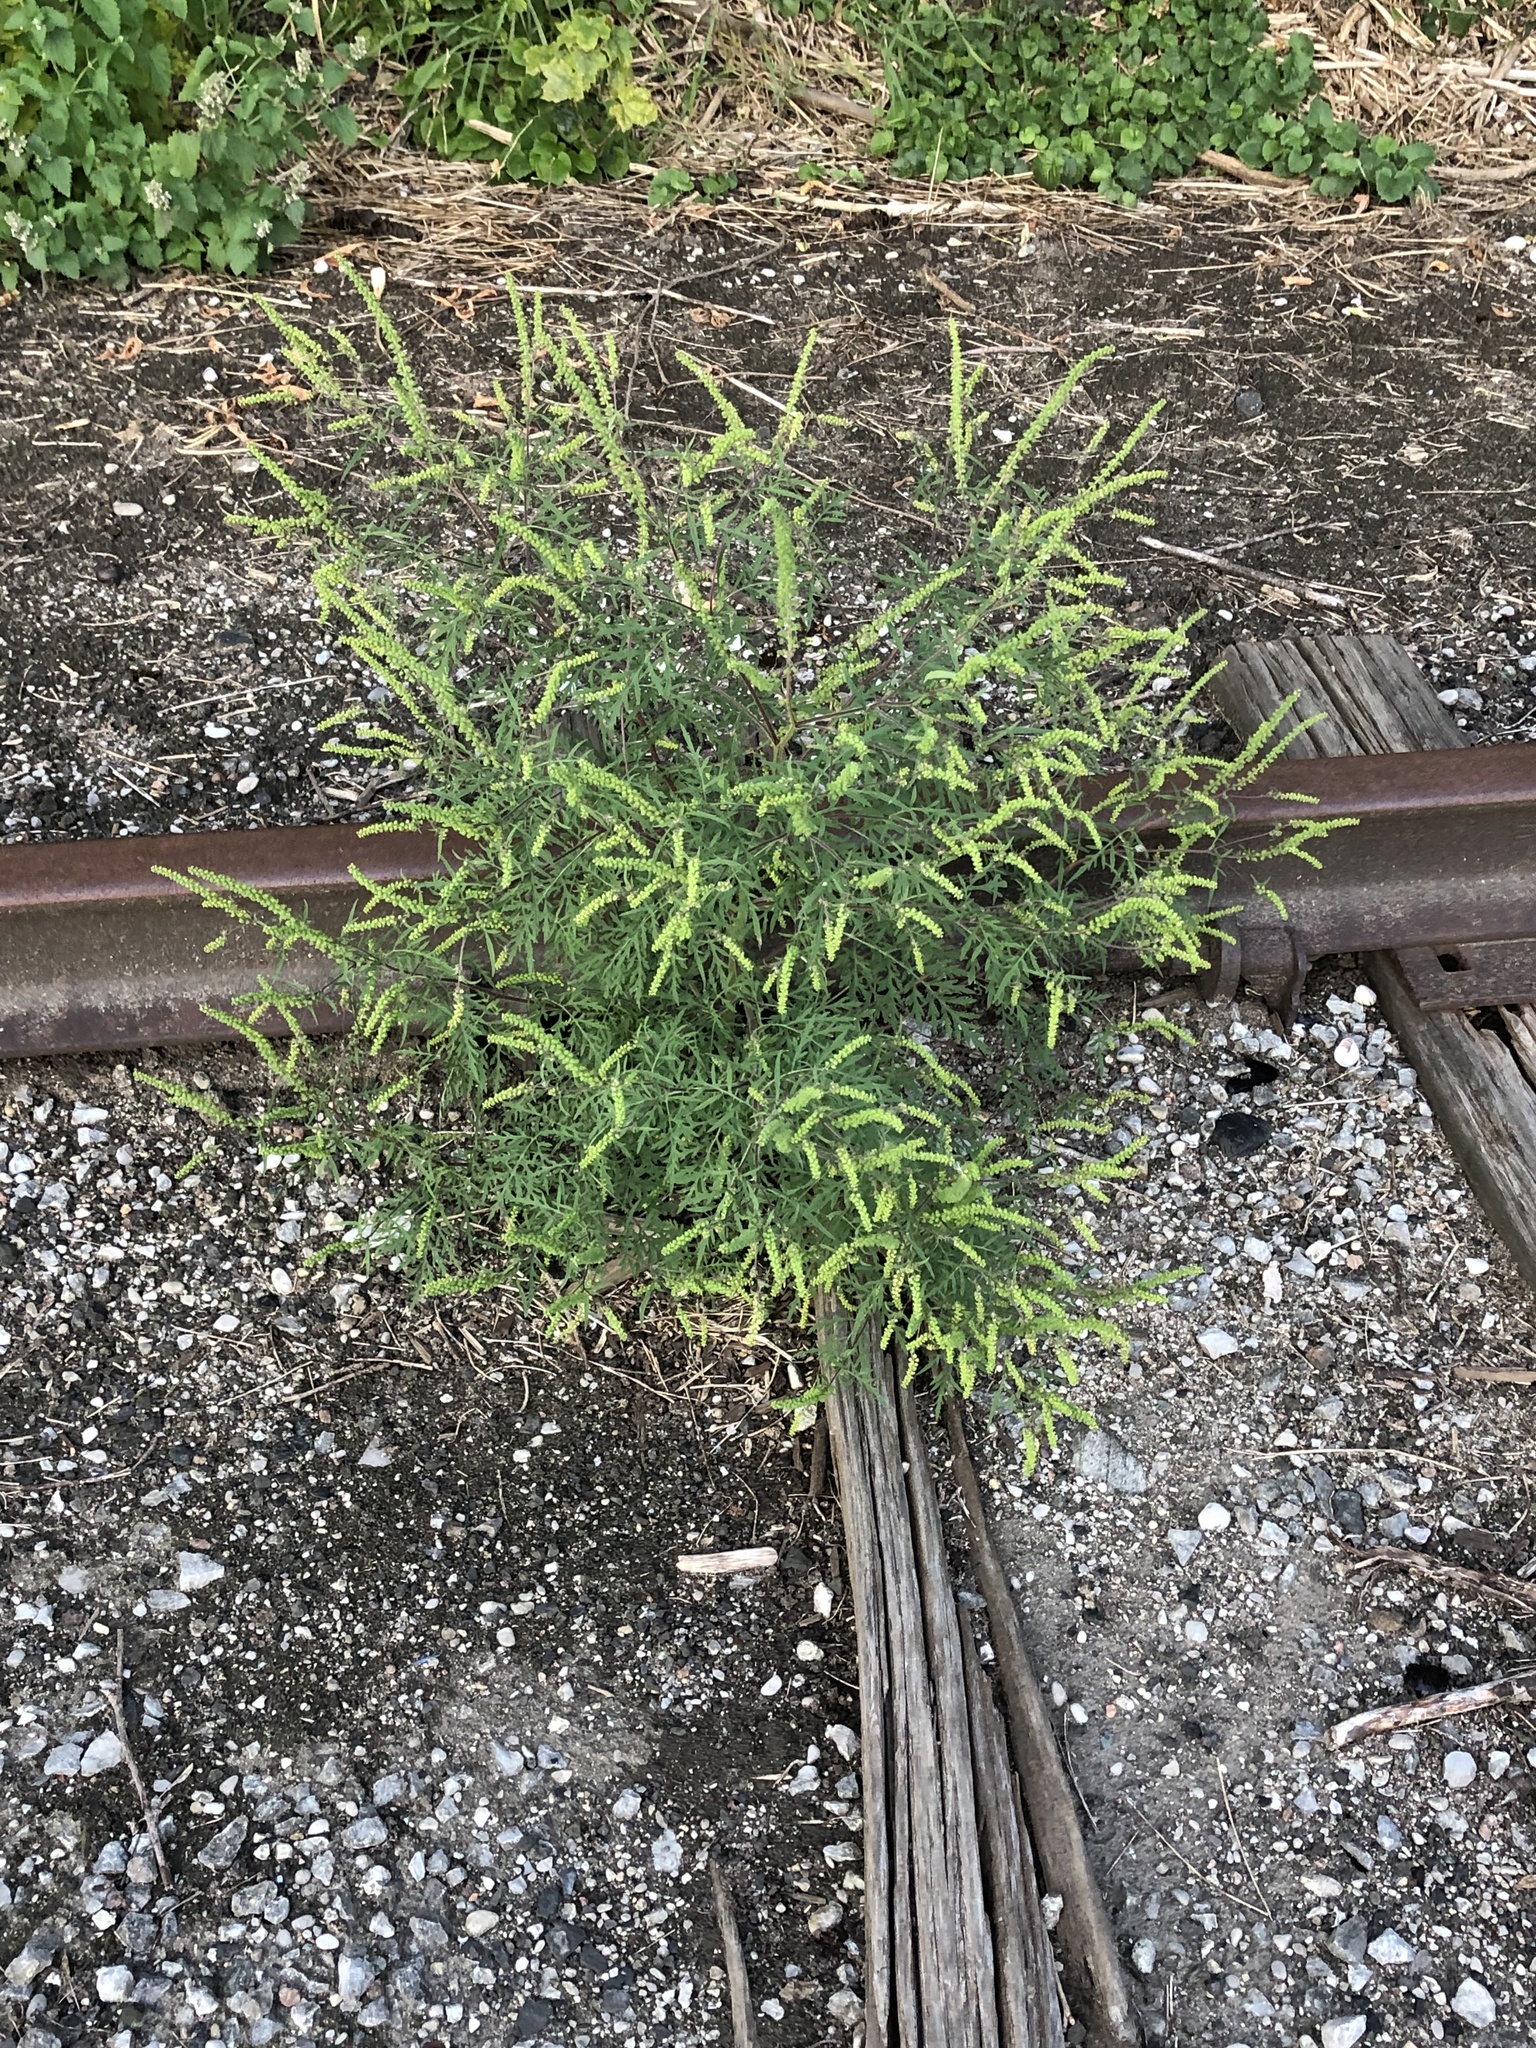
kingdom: Plantae
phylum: Tracheophyta
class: Magnoliopsida
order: Asterales
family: Asteraceae
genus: Ambrosia
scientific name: Ambrosia artemisiifolia
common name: Annual ragweed
